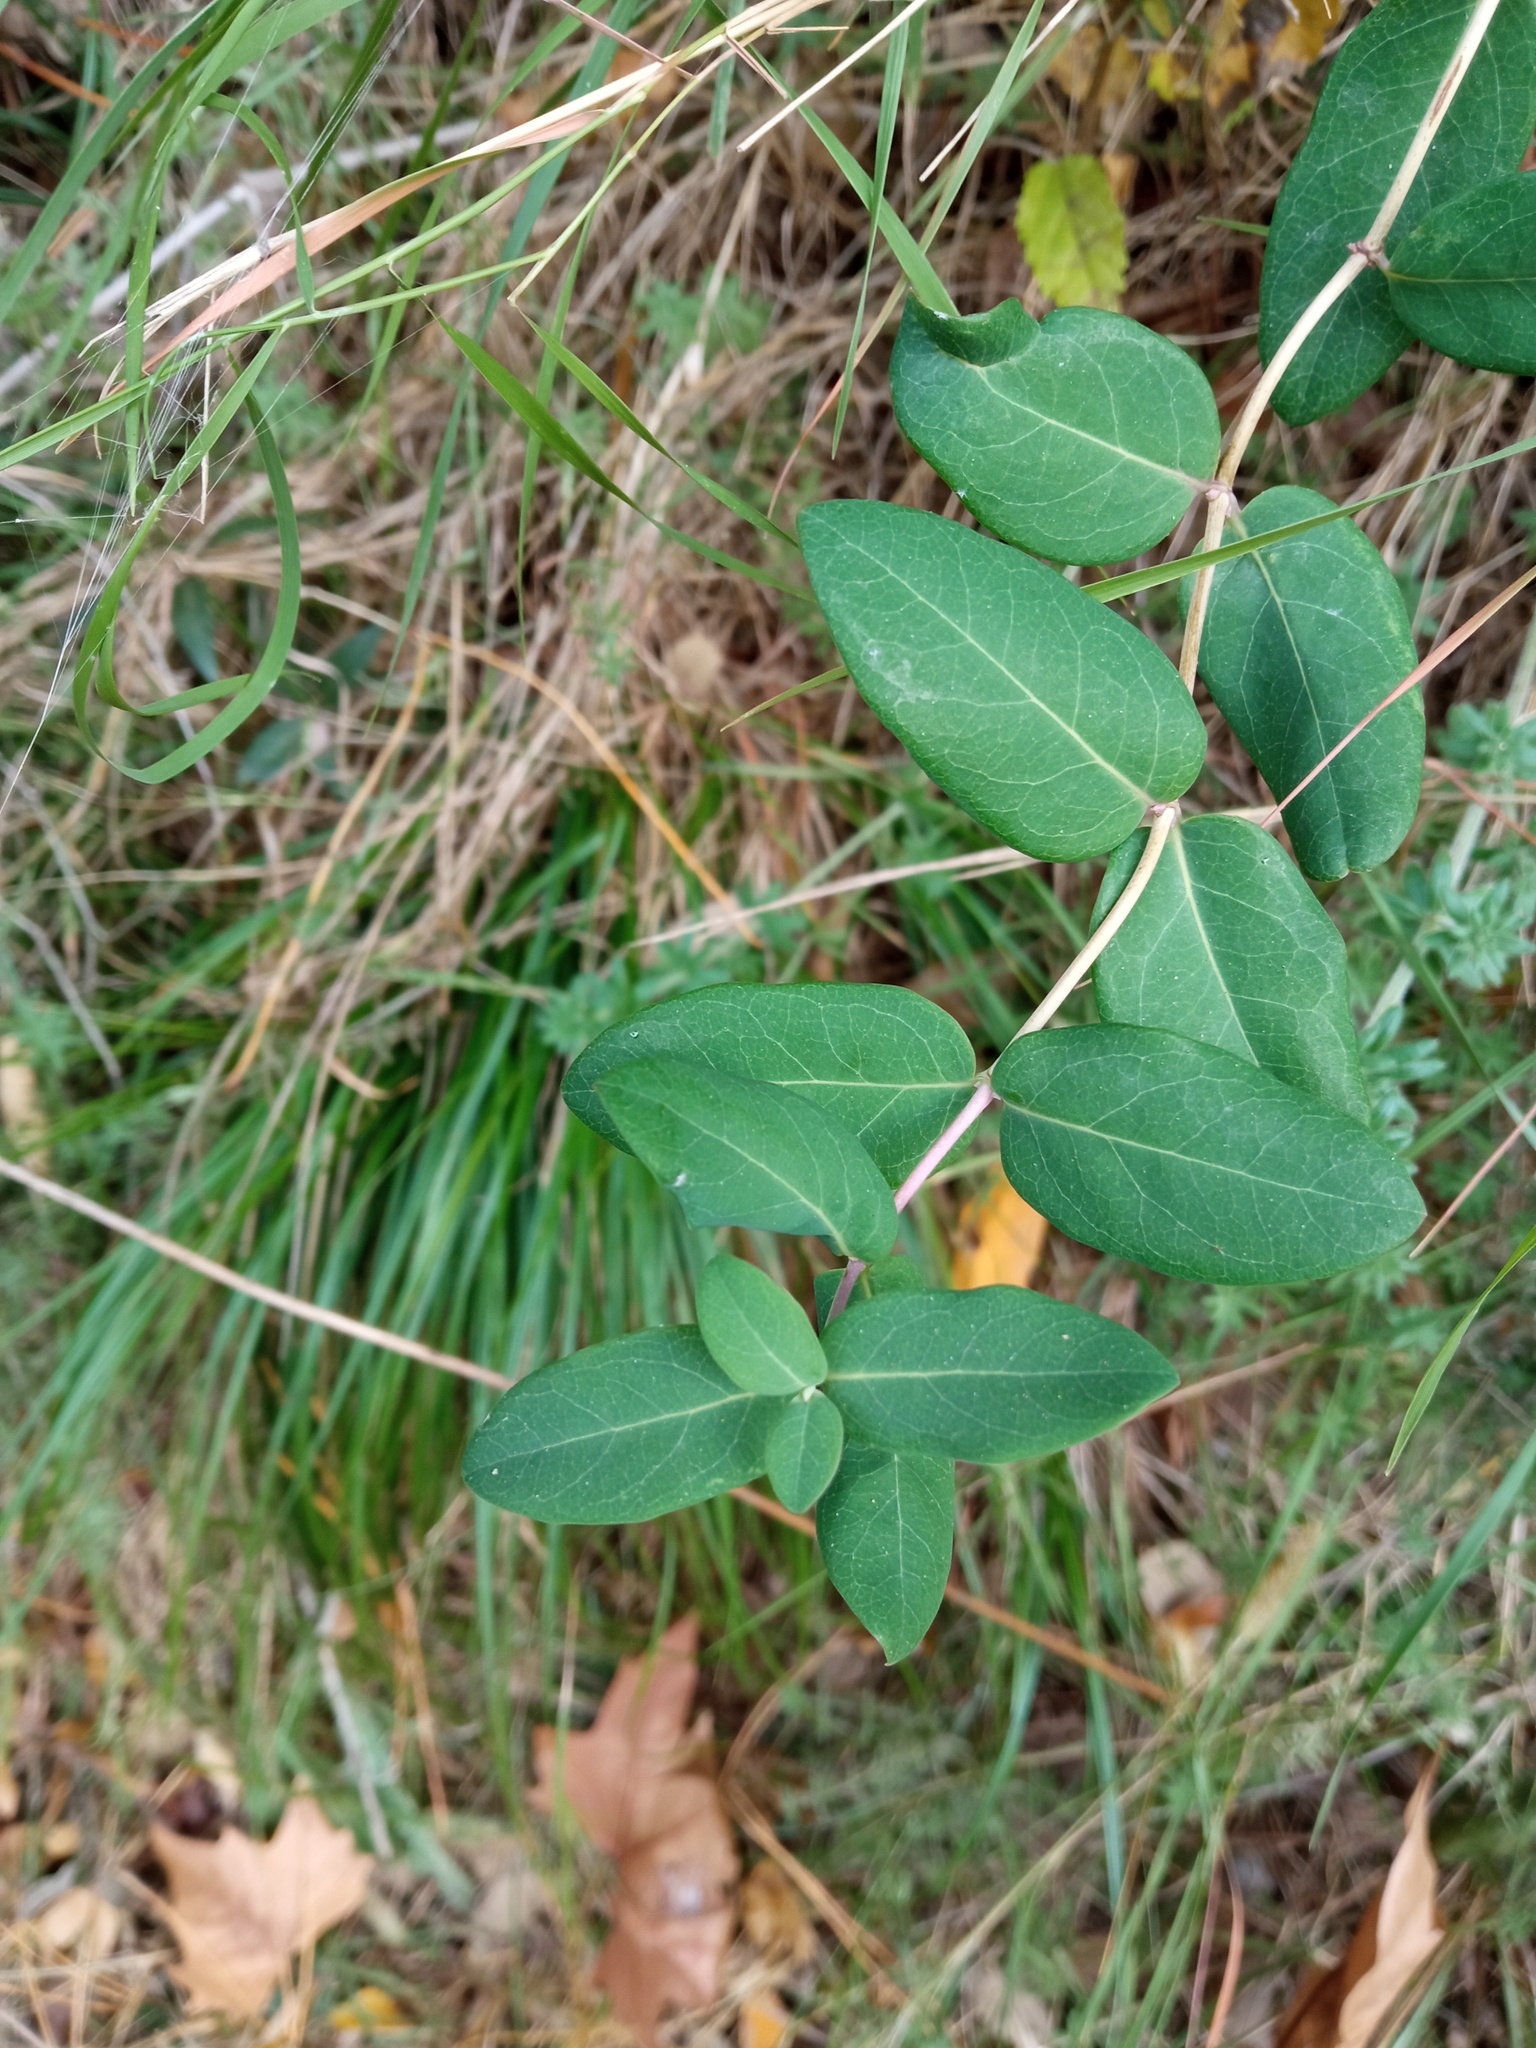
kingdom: Plantae
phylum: Tracheophyta
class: Magnoliopsida
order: Dipsacales
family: Caprifoliaceae
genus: Lonicera
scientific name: Lonicera implexa
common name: Minorca honeysuckle
